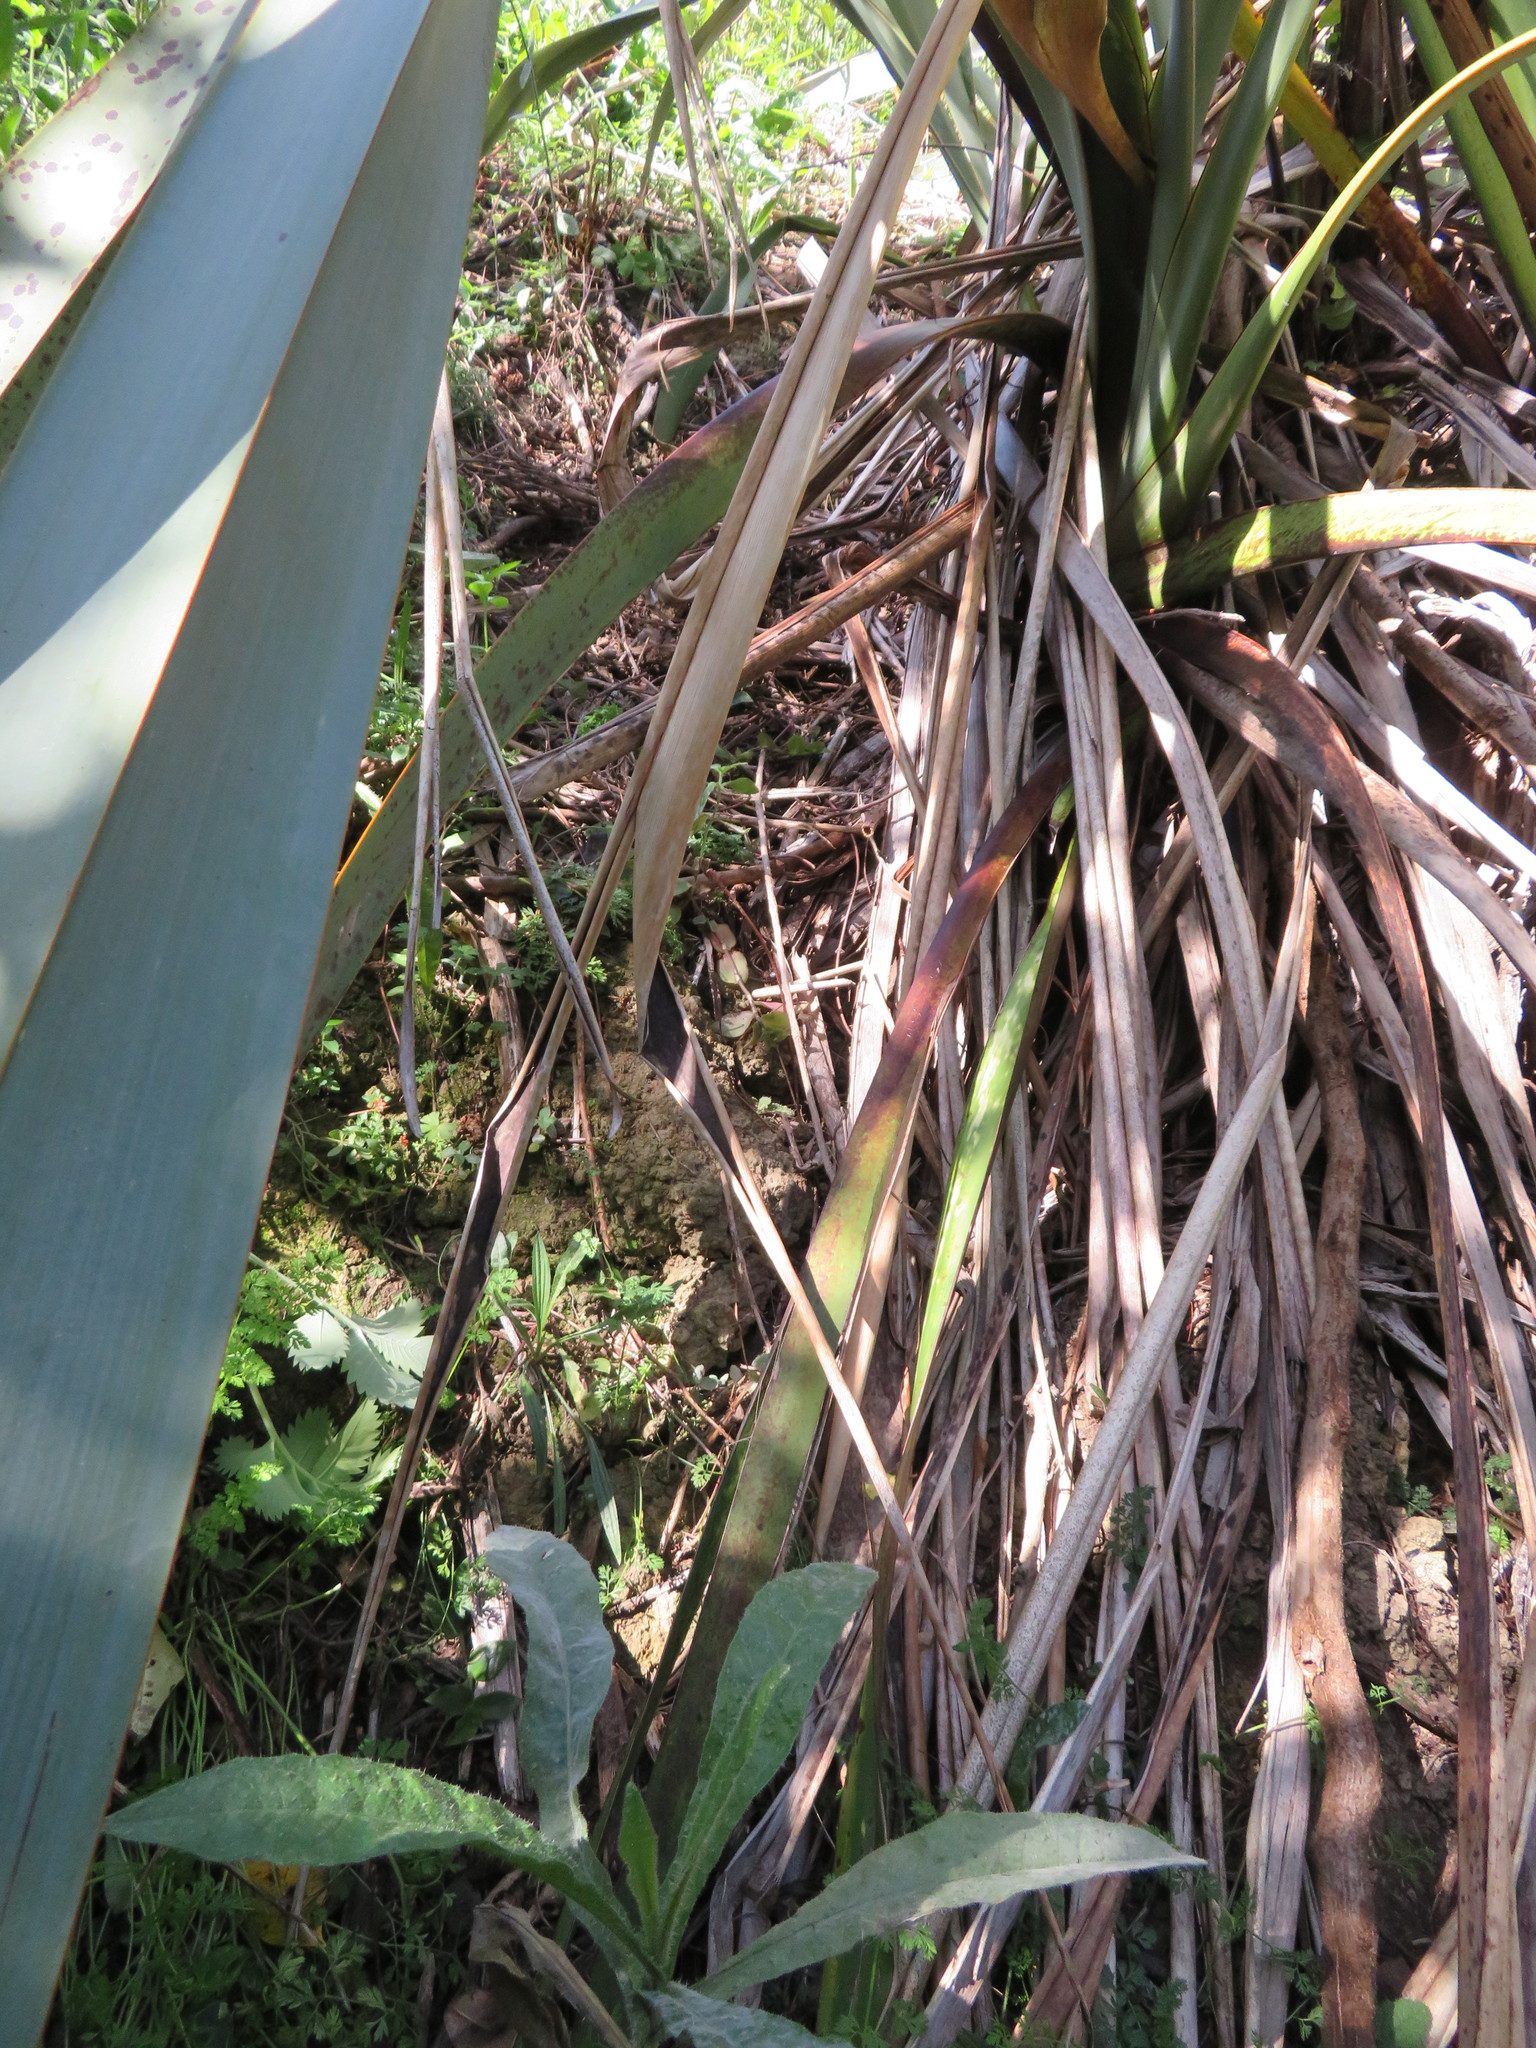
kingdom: Plantae
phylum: Tracheophyta
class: Magnoliopsida
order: Asterales
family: Asteraceae
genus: Helminthotheca
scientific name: Helminthotheca echioides
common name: Ox-tongue
